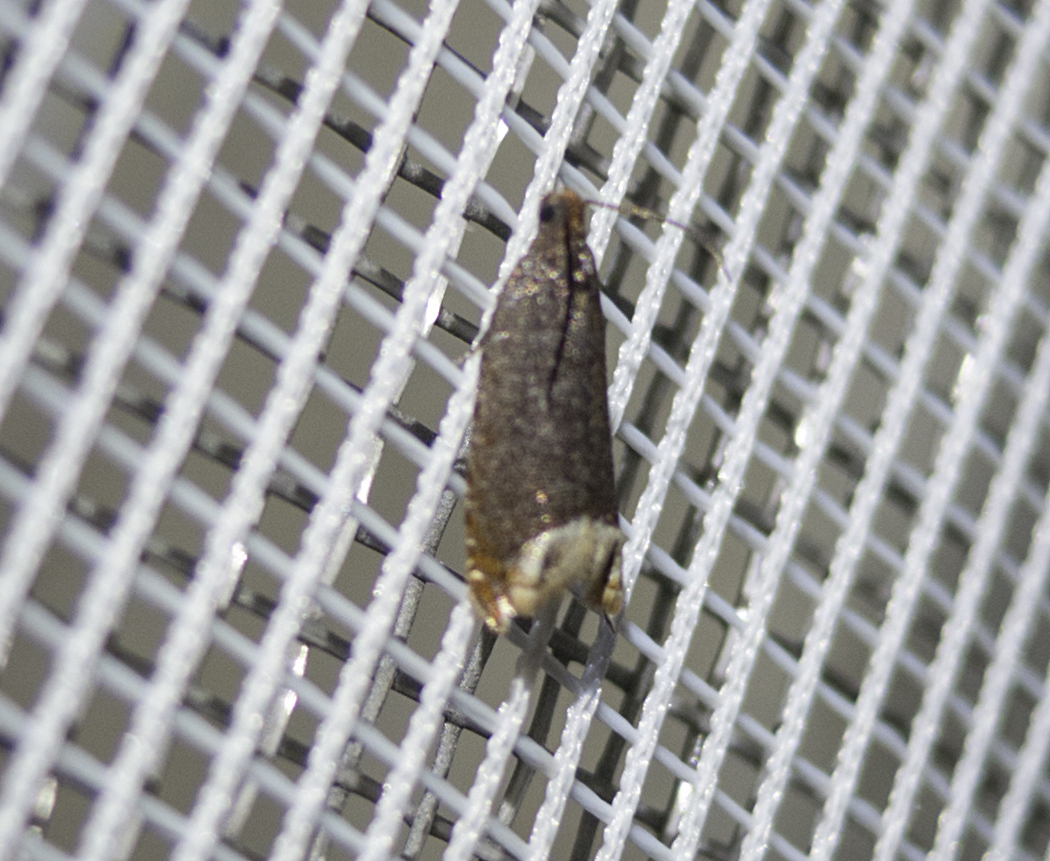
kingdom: Animalia
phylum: Arthropoda
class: Insecta
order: Lepidoptera
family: Tortricidae
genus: Ancylis
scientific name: Ancylis selenana
